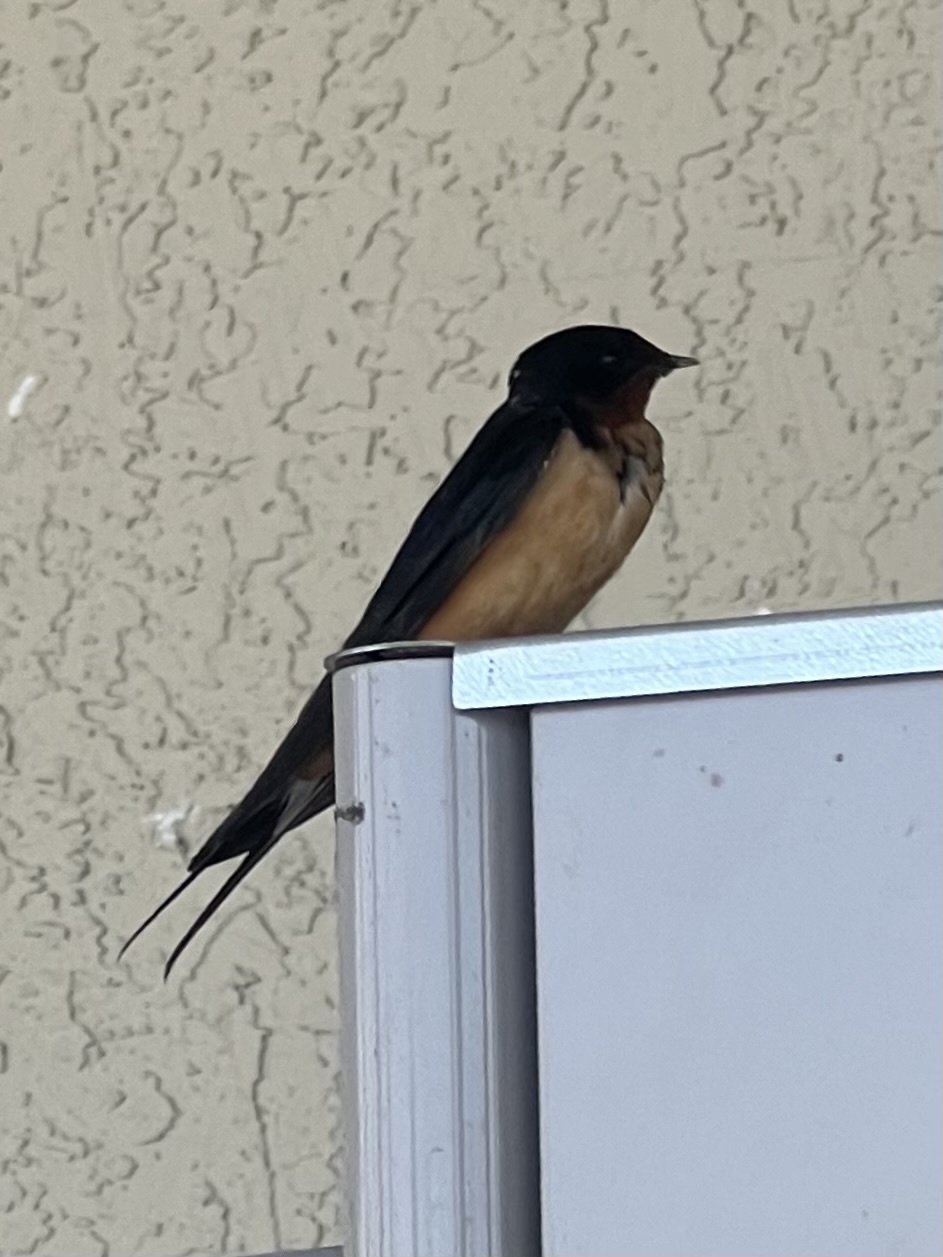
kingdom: Animalia
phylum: Chordata
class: Aves
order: Passeriformes
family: Hirundinidae
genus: Hirundo
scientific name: Hirundo rustica
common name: Barn swallow
